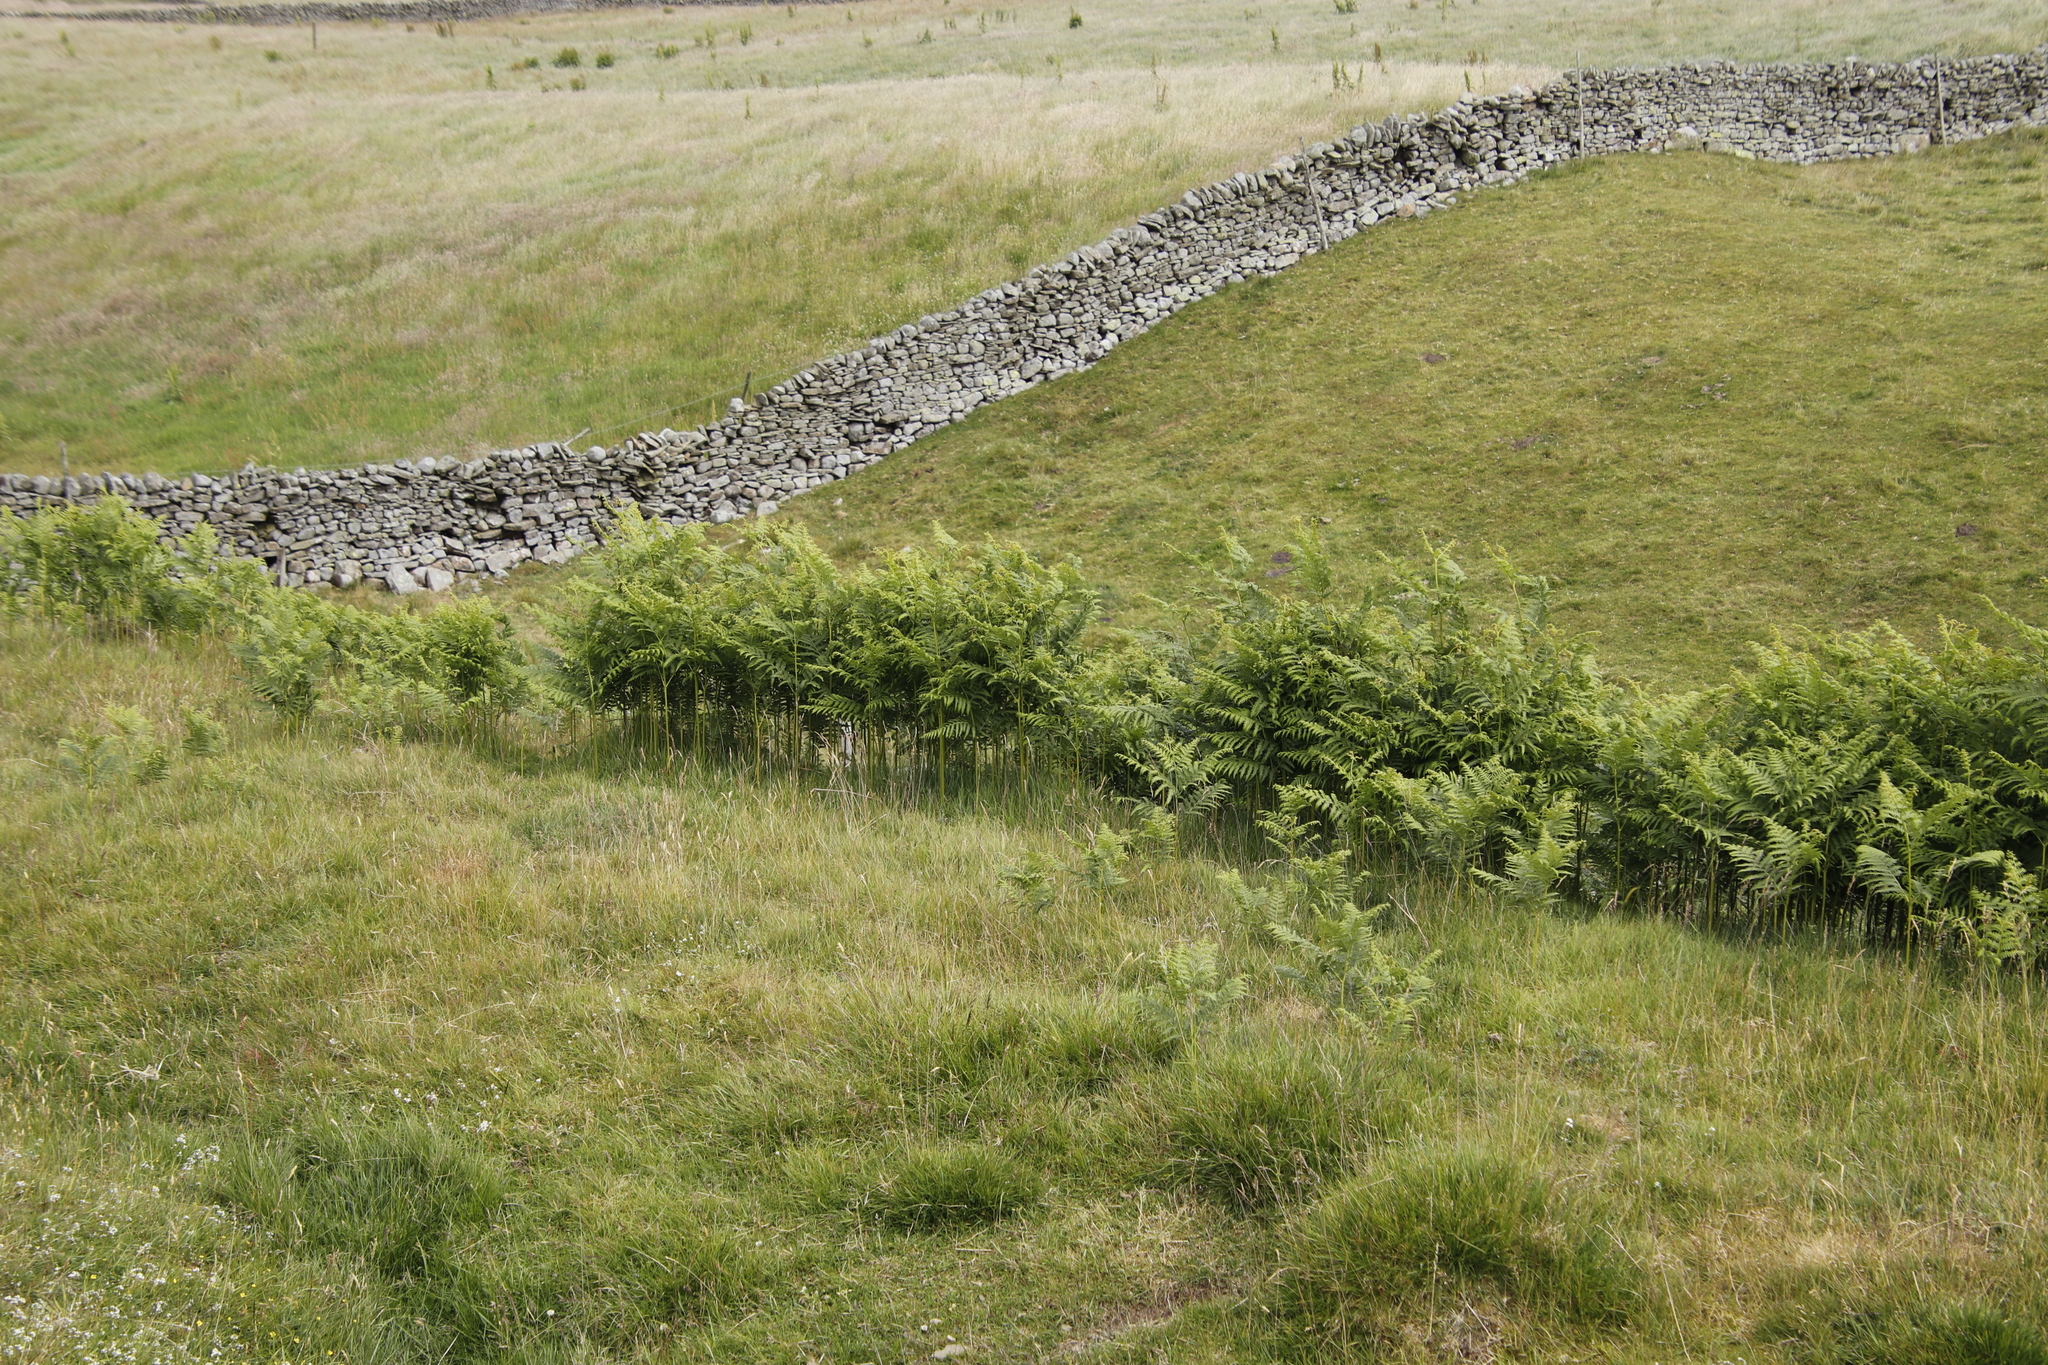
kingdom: Plantae
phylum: Tracheophyta
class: Polypodiopsida
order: Polypodiales
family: Dennstaedtiaceae
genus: Pteridium
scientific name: Pteridium aquilinum
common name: Bracken
